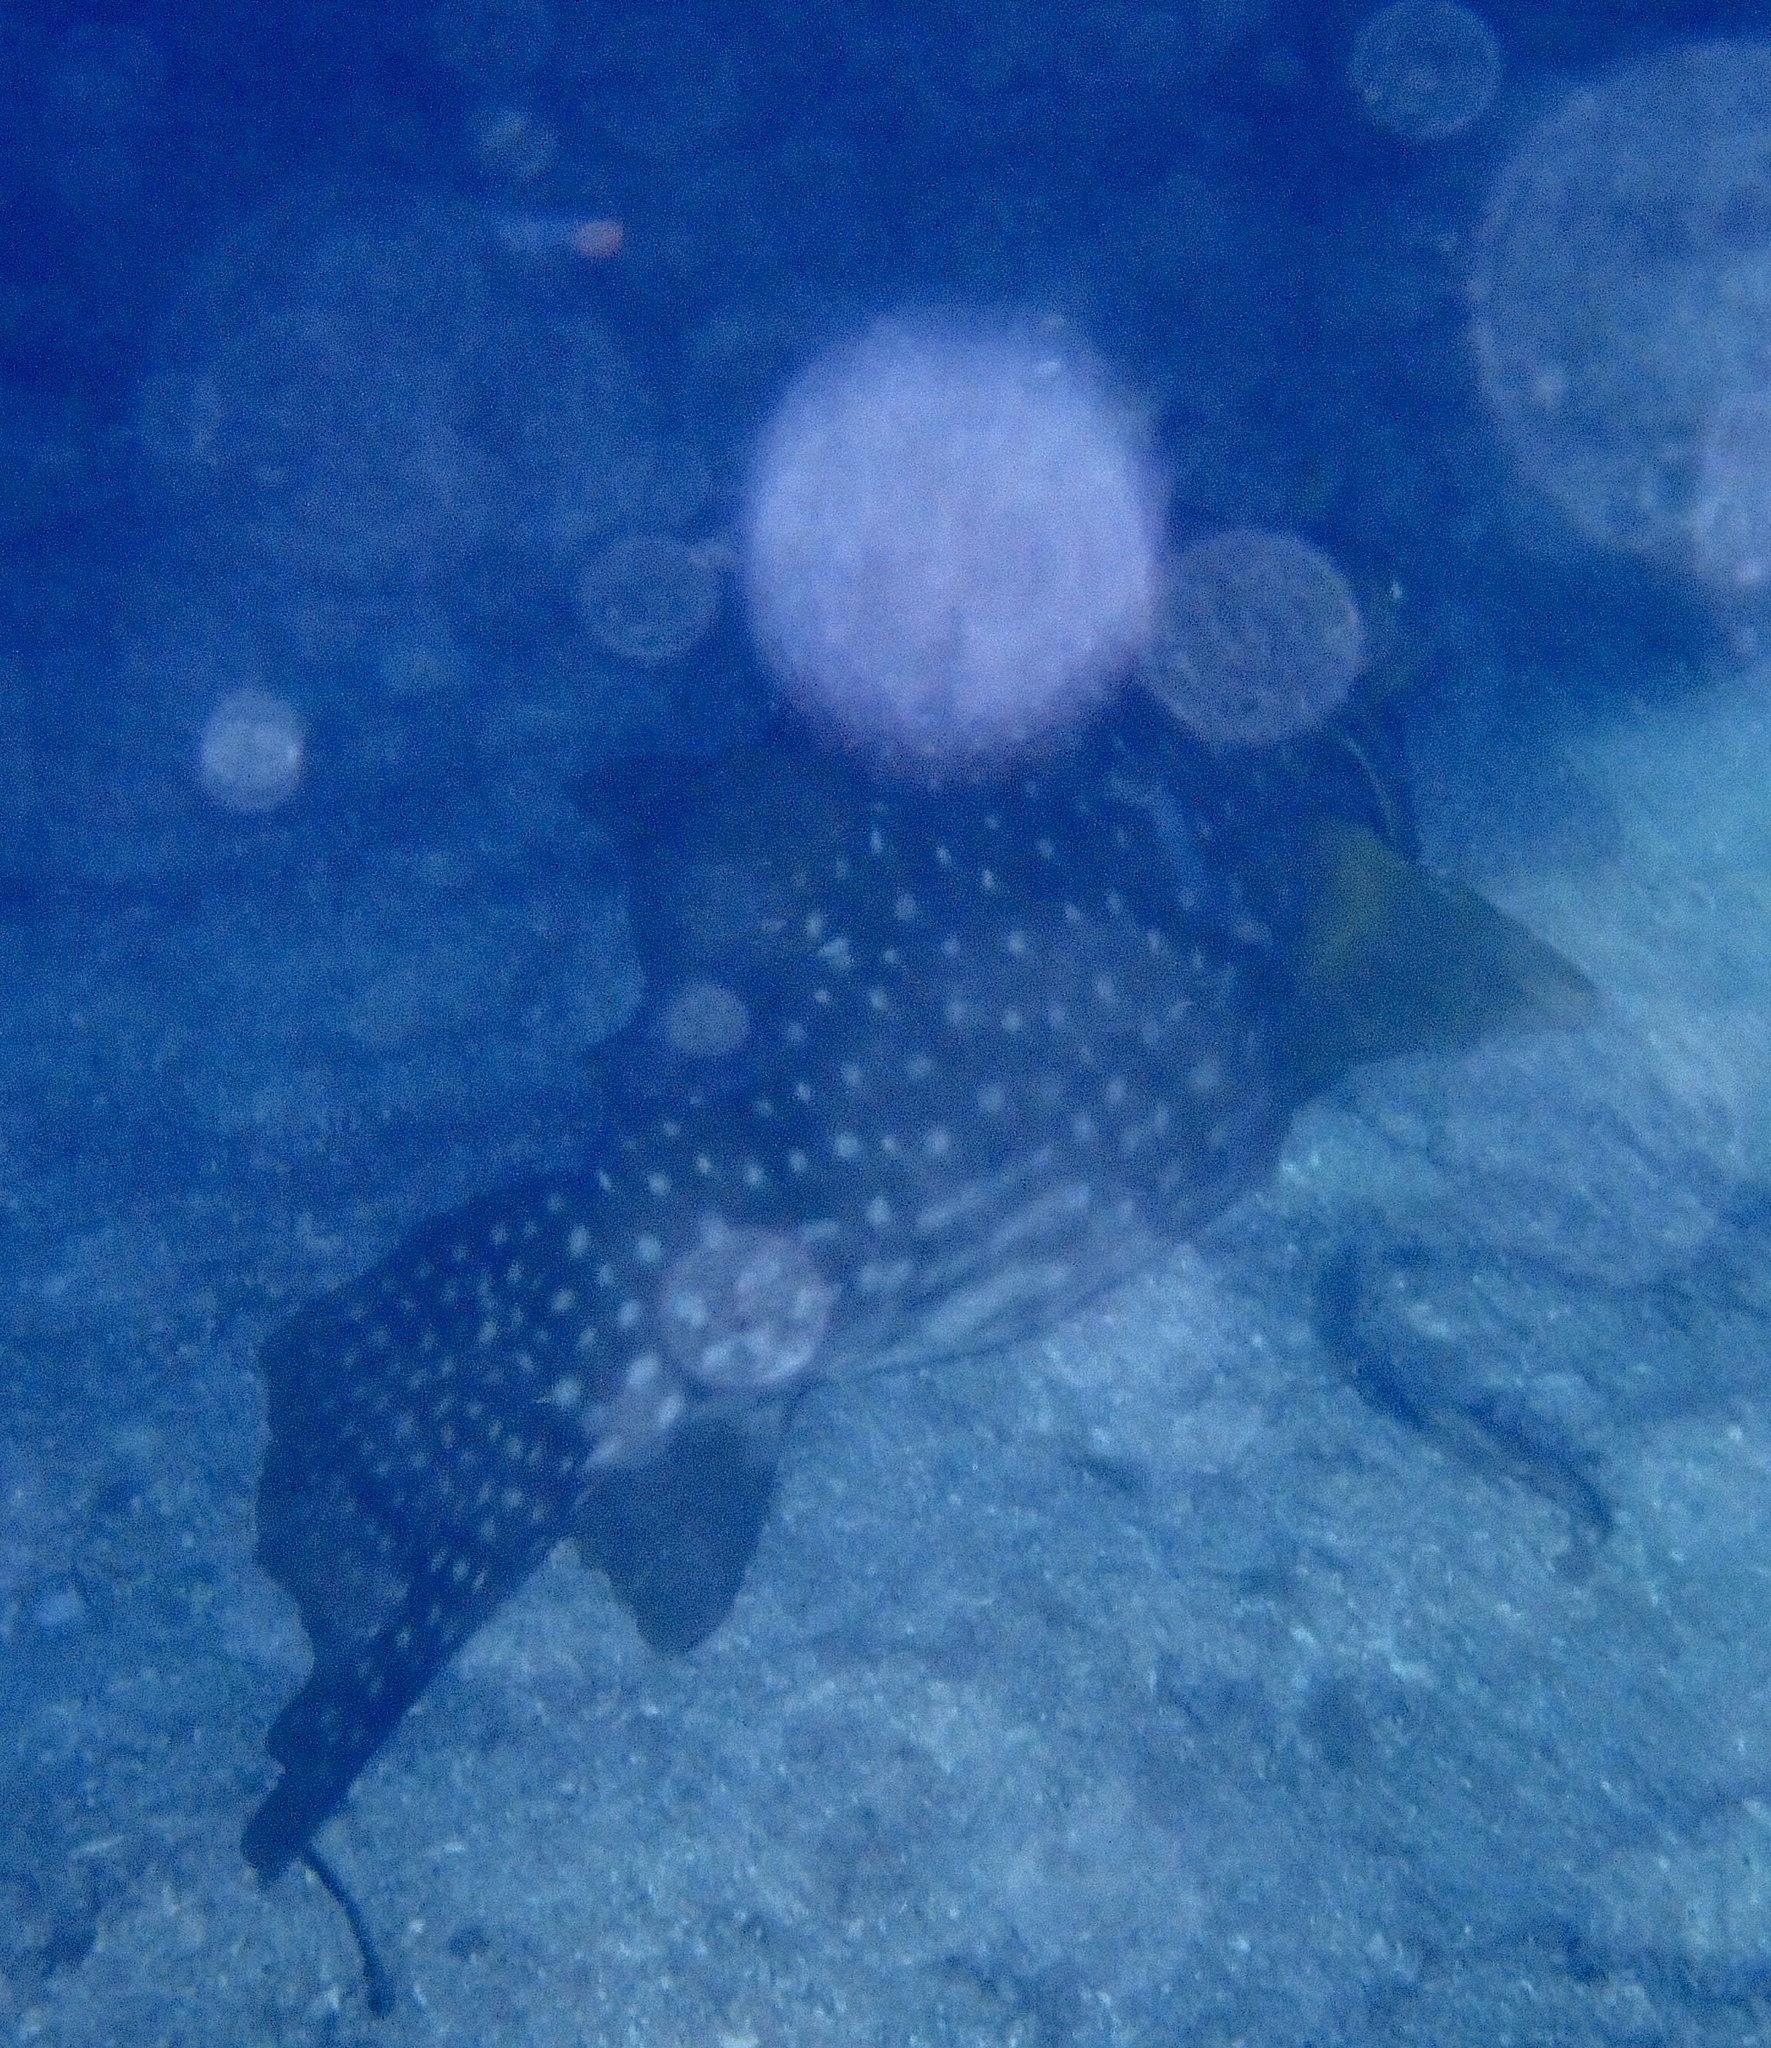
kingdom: Animalia
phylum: Chordata
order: Tetraodontiformes
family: Tetraodontidae
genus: Arothron
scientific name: Arothron hispidus
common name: Stripebelly puffer
